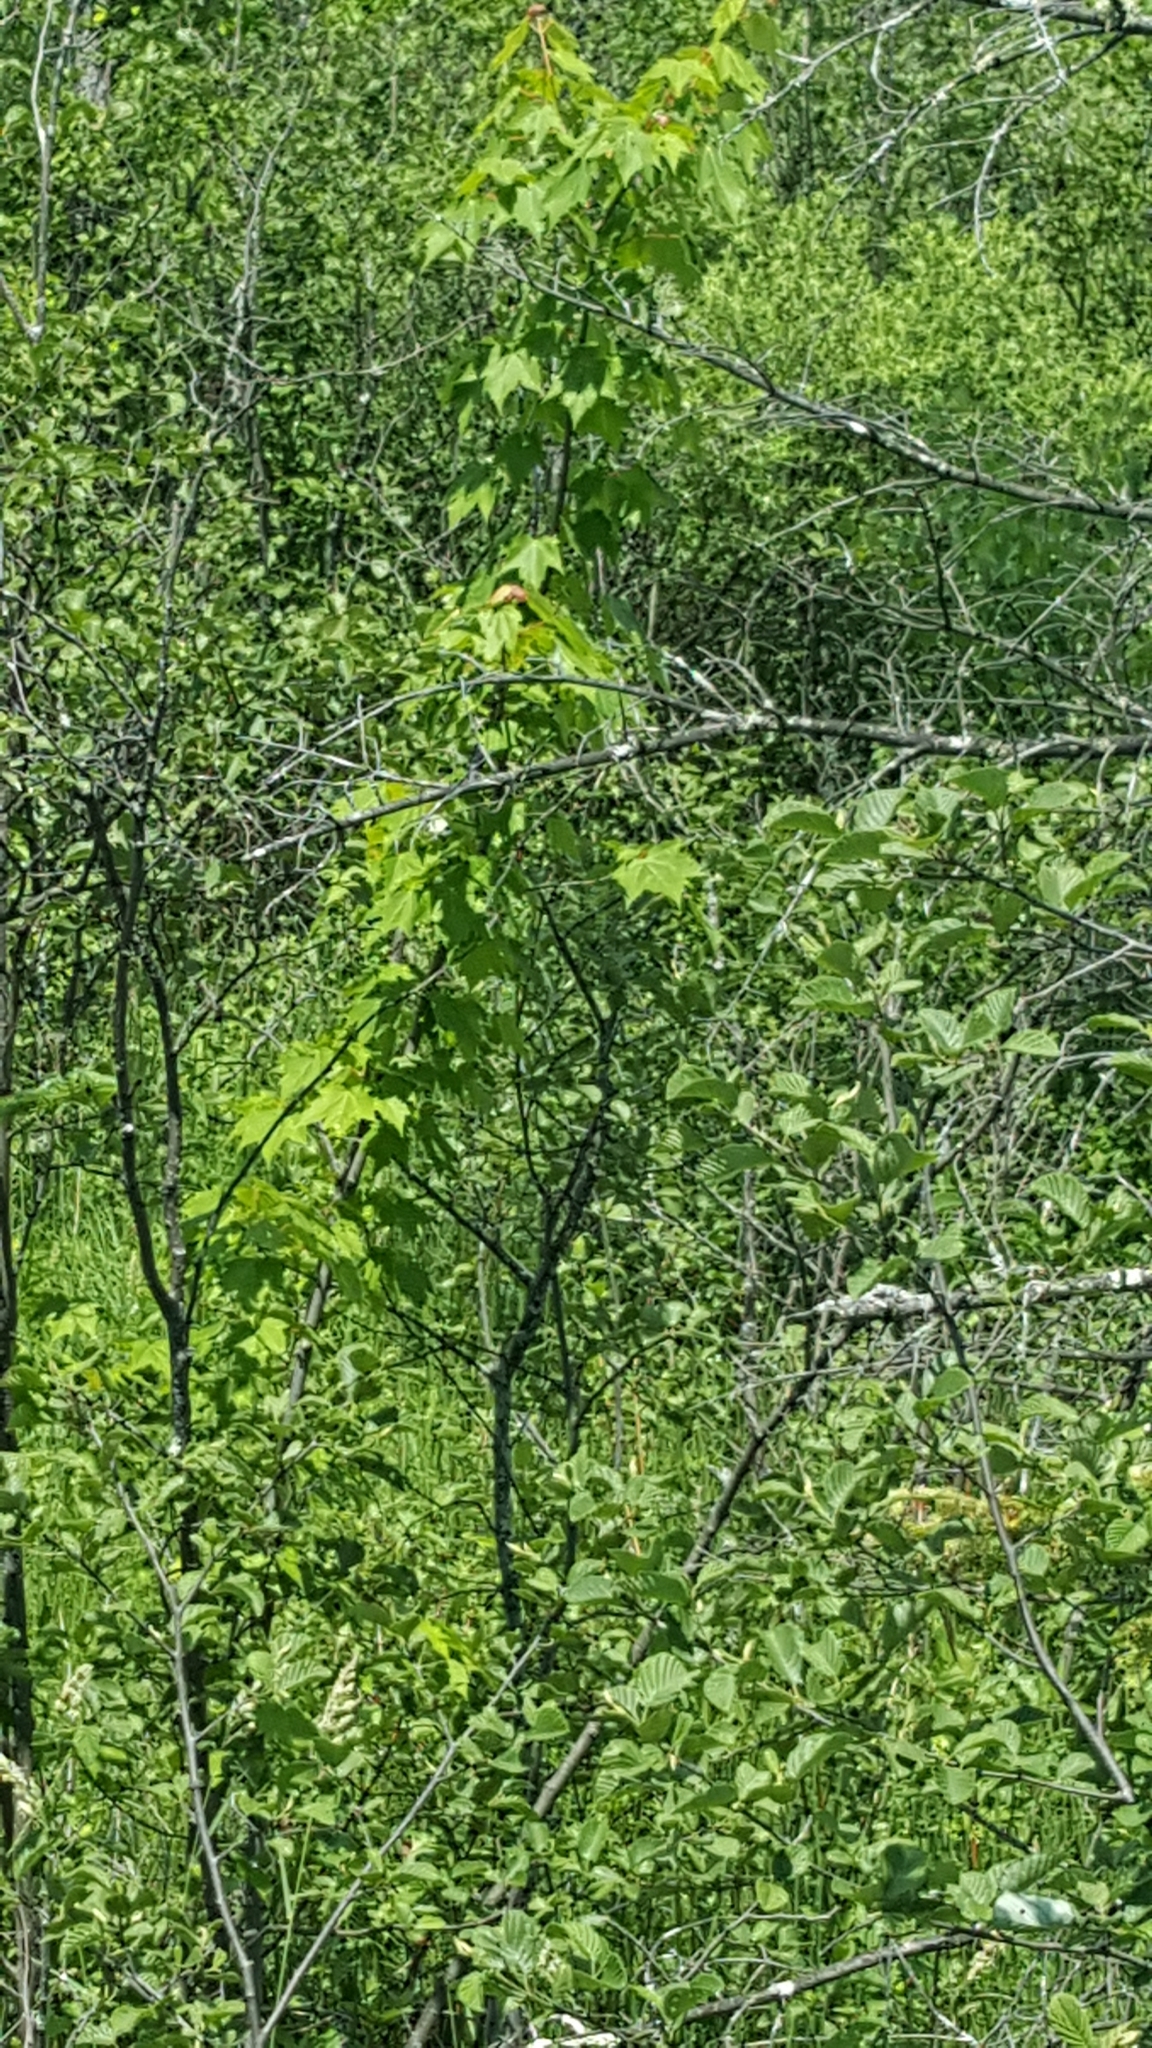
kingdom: Plantae
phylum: Tracheophyta
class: Magnoliopsida
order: Sapindales
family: Sapindaceae
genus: Acer
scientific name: Acer rubrum
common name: Red maple
